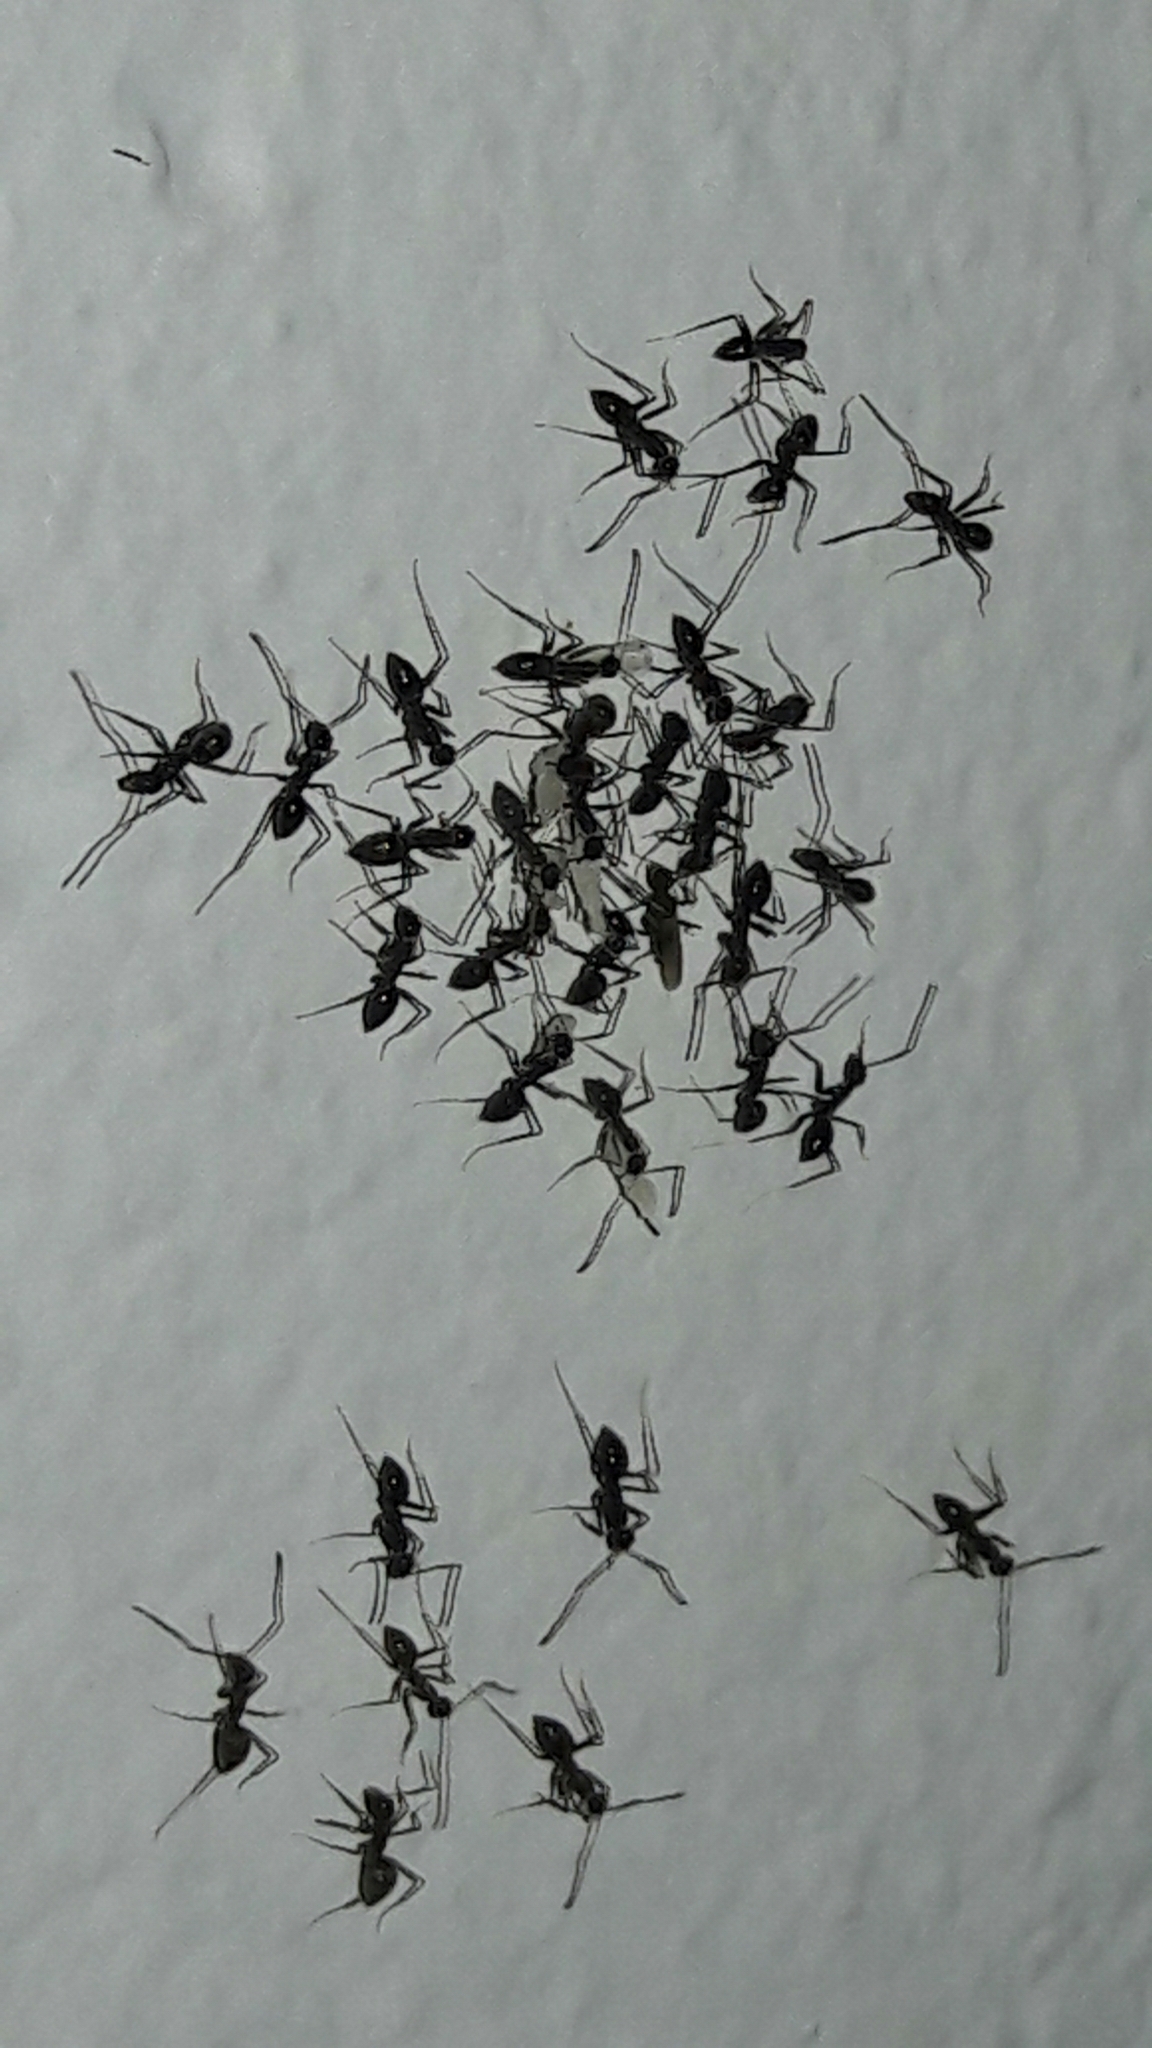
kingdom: Animalia
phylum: Arthropoda
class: Insecta
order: Hymenoptera
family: Formicidae
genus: Paratrechina
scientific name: Paratrechina longicornis
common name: Longhorned crazy ant
